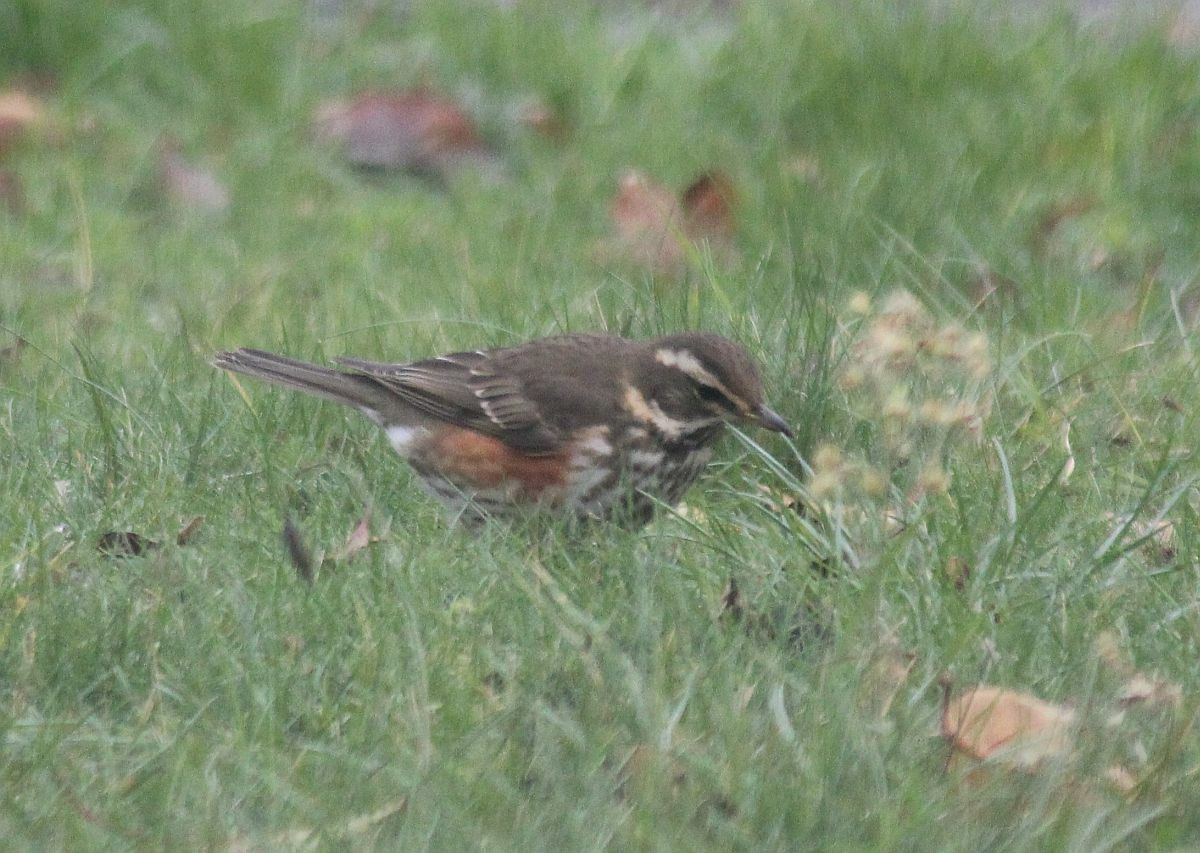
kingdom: Animalia
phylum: Chordata
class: Aves
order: Passeriformes
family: Turdidae
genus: Turdus
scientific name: Turdus iliacus
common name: Redwing
